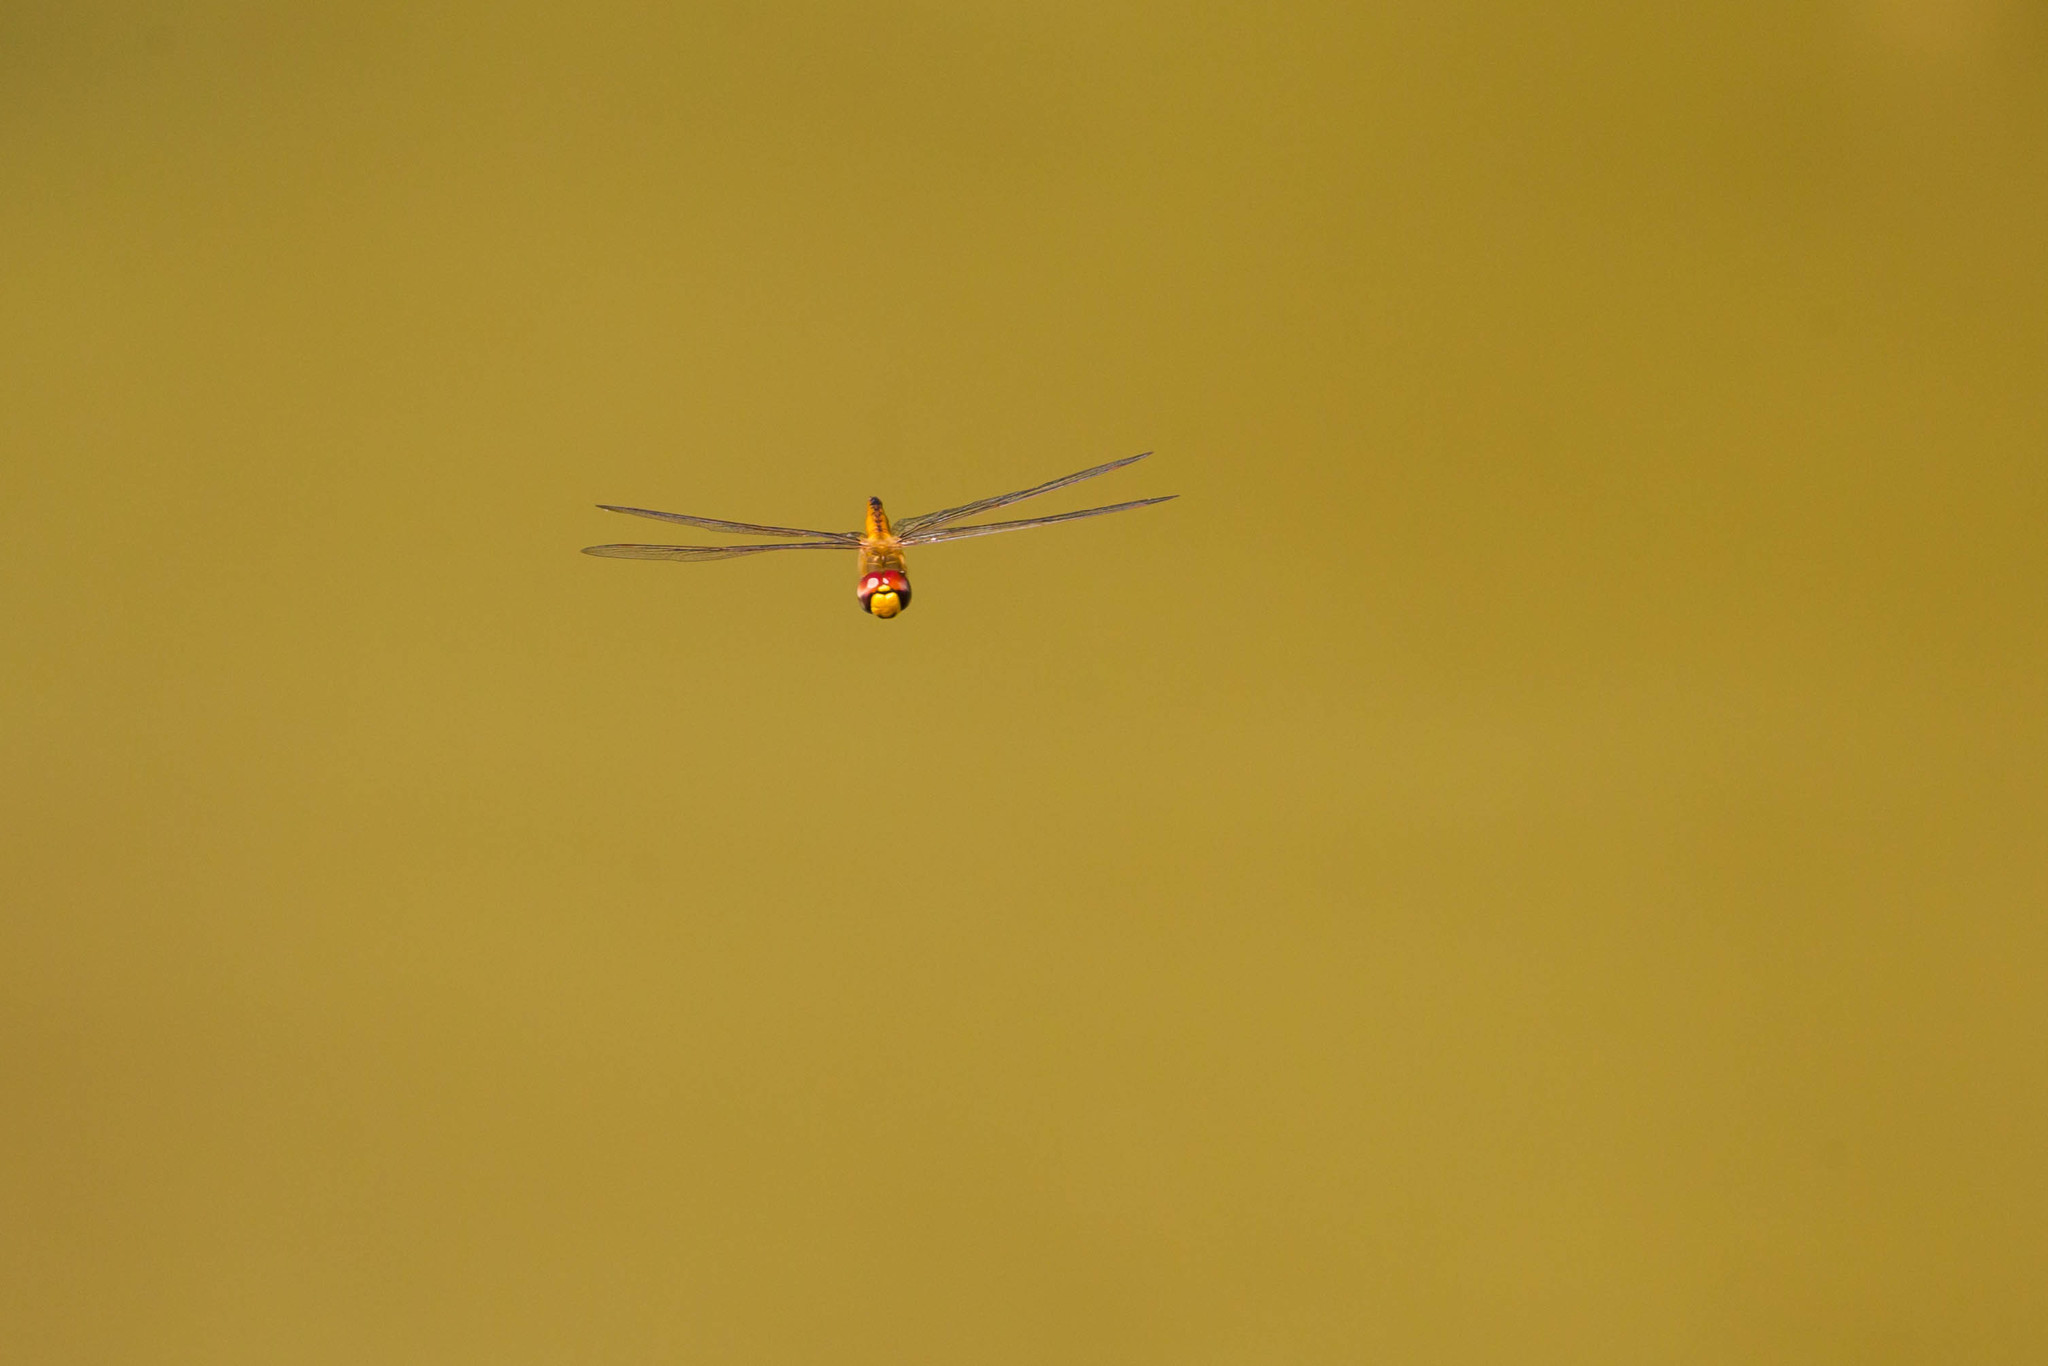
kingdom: Animalia
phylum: Arthropoda
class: Insecta
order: Odonata
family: Libellulidae
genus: Pantala
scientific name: Pantala flavescens
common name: Wandering glider
